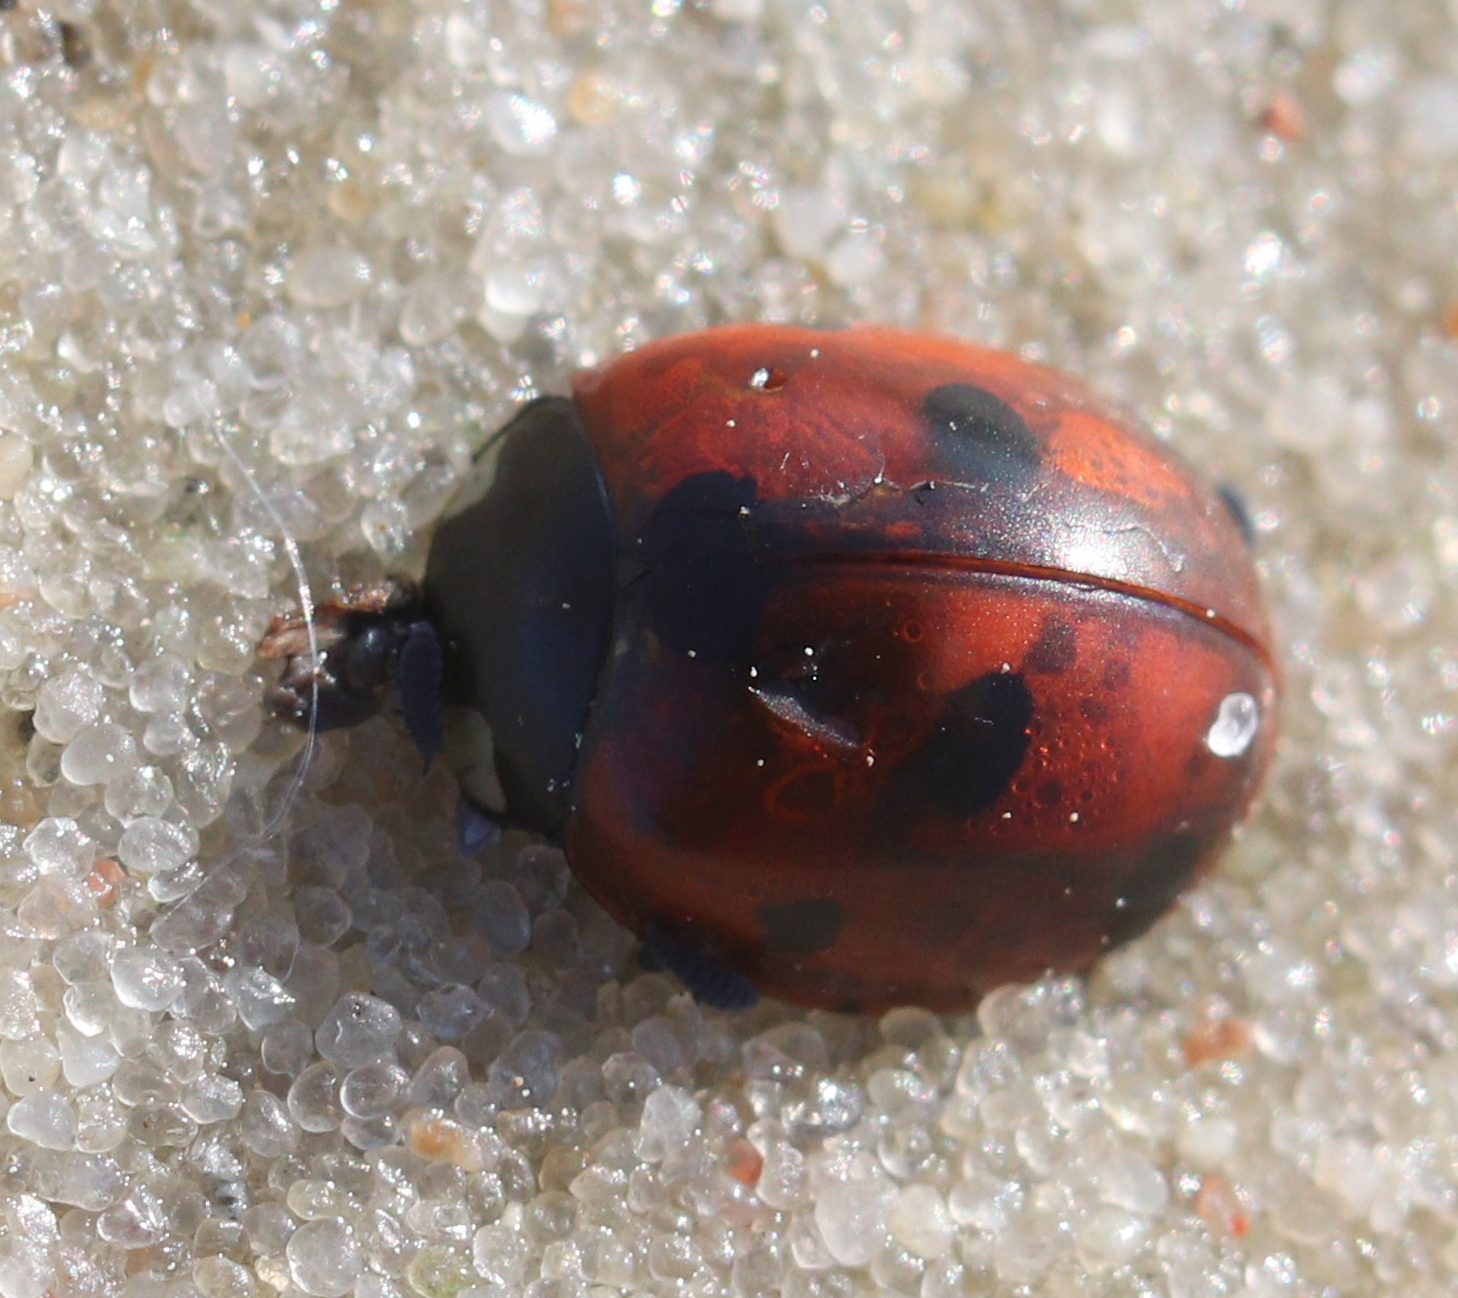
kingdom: Animalia
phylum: Arthropoda
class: Insecta
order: Coleoptera
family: Coccinellidae
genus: Coccinella
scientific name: Coccinella septempunctata
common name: Sevenspotted lady beetle
